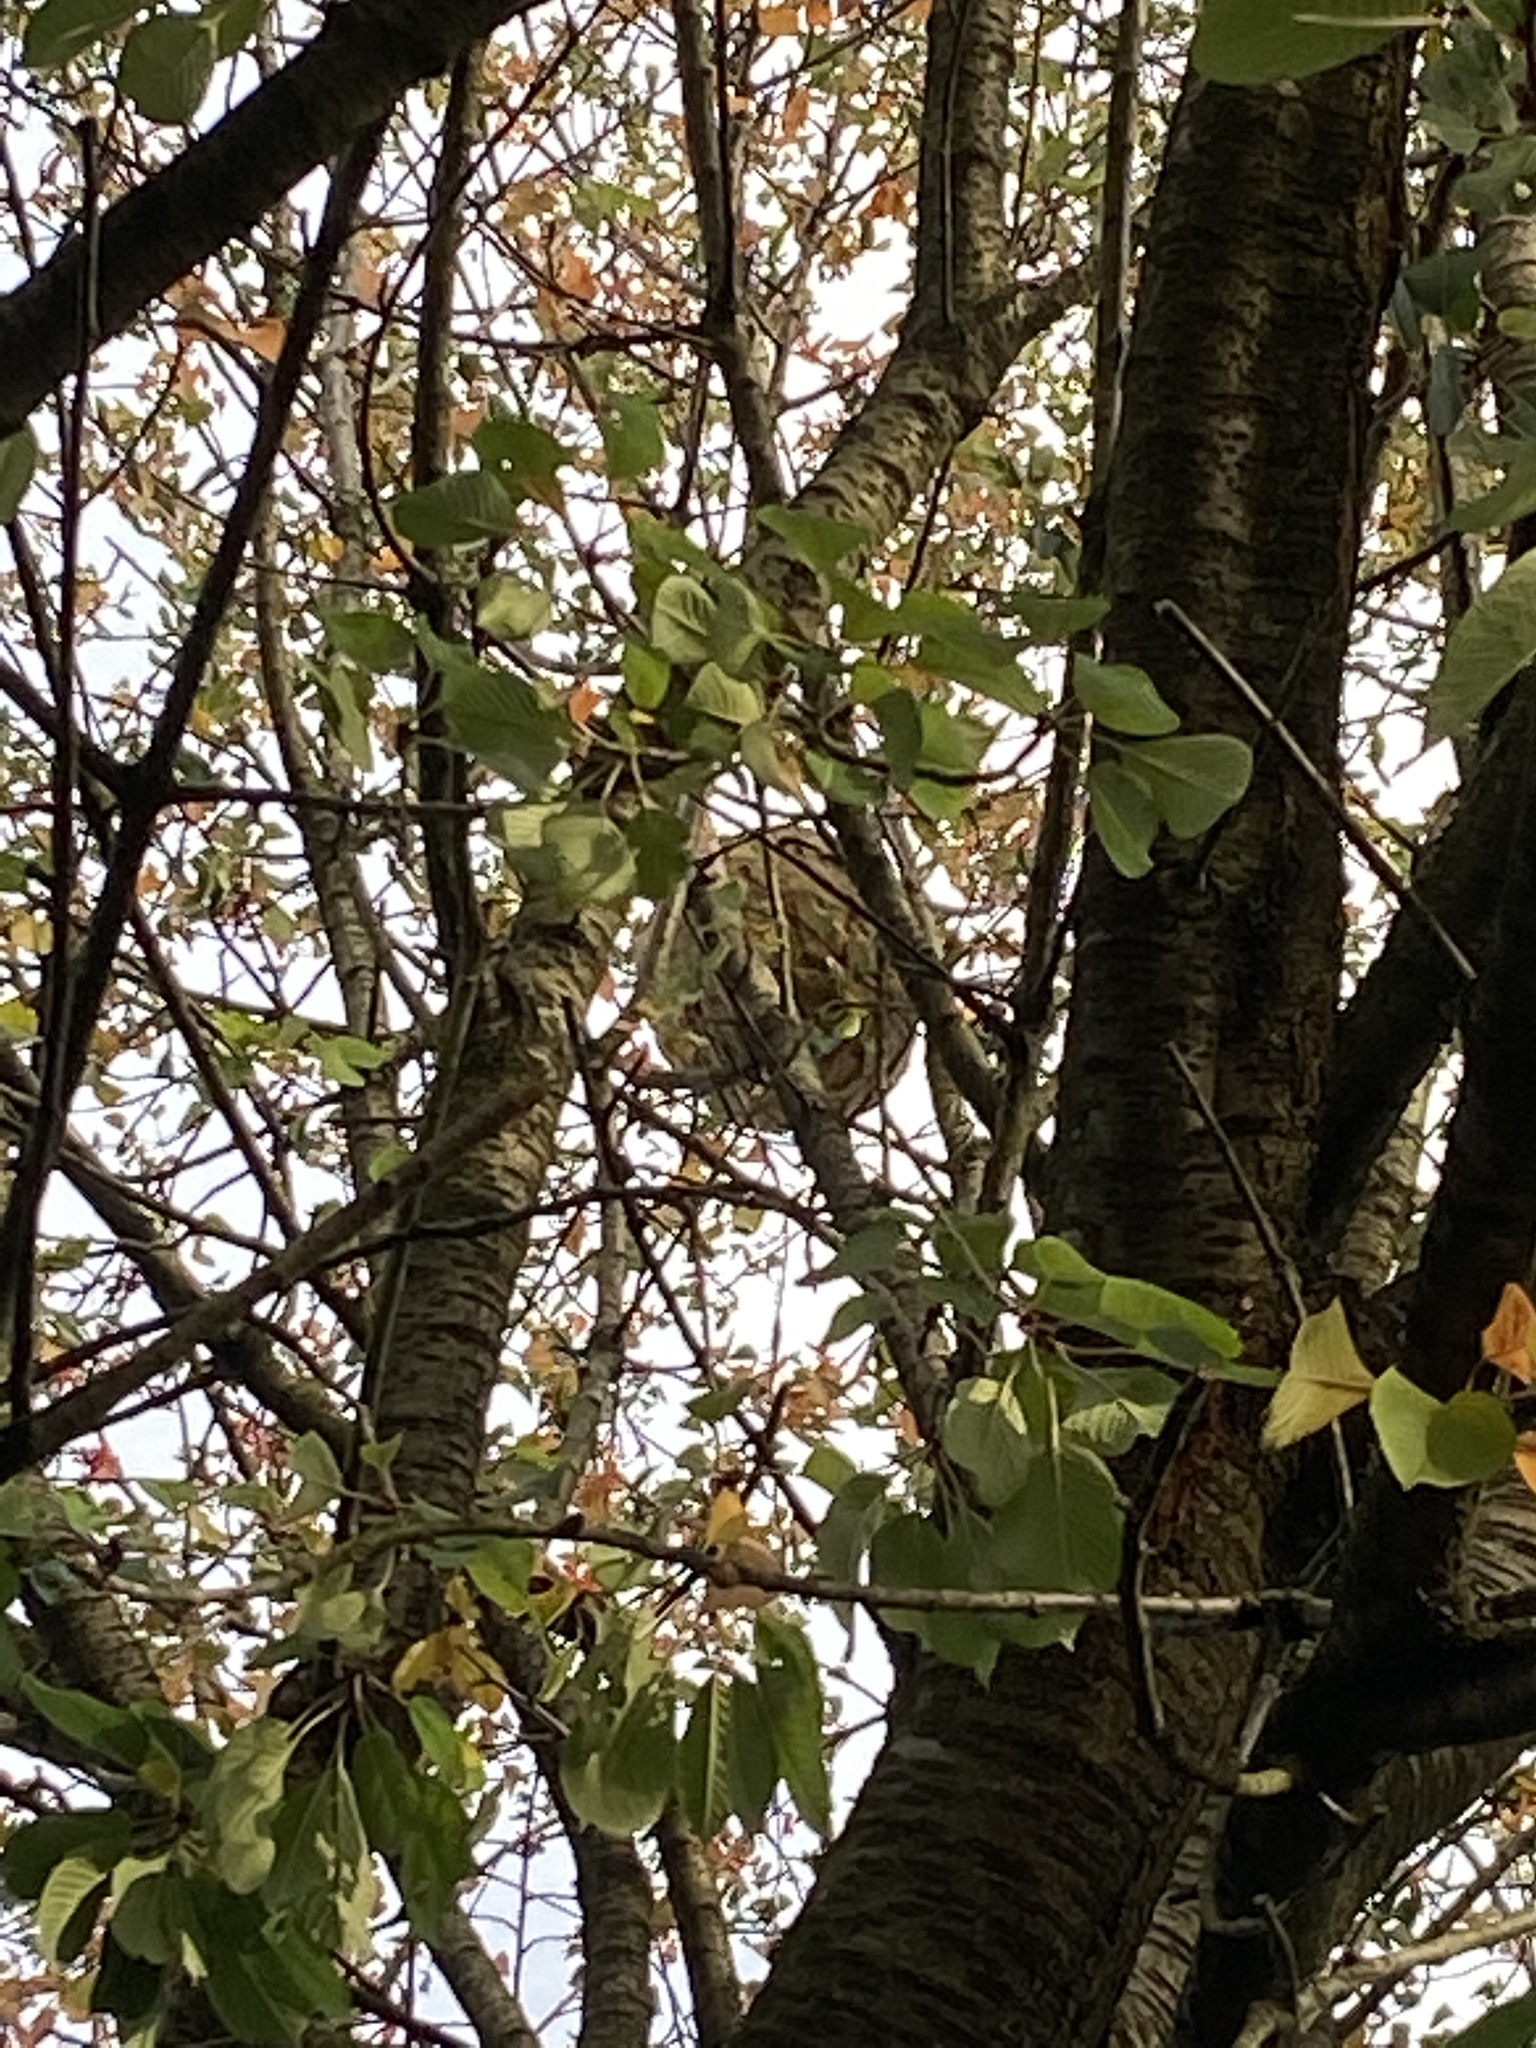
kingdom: Animalia
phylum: Arthropoda
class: Insecta
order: Hymenoptera
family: Vespidae
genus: Vespa
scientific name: Vespa velutina
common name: Asian hornet
